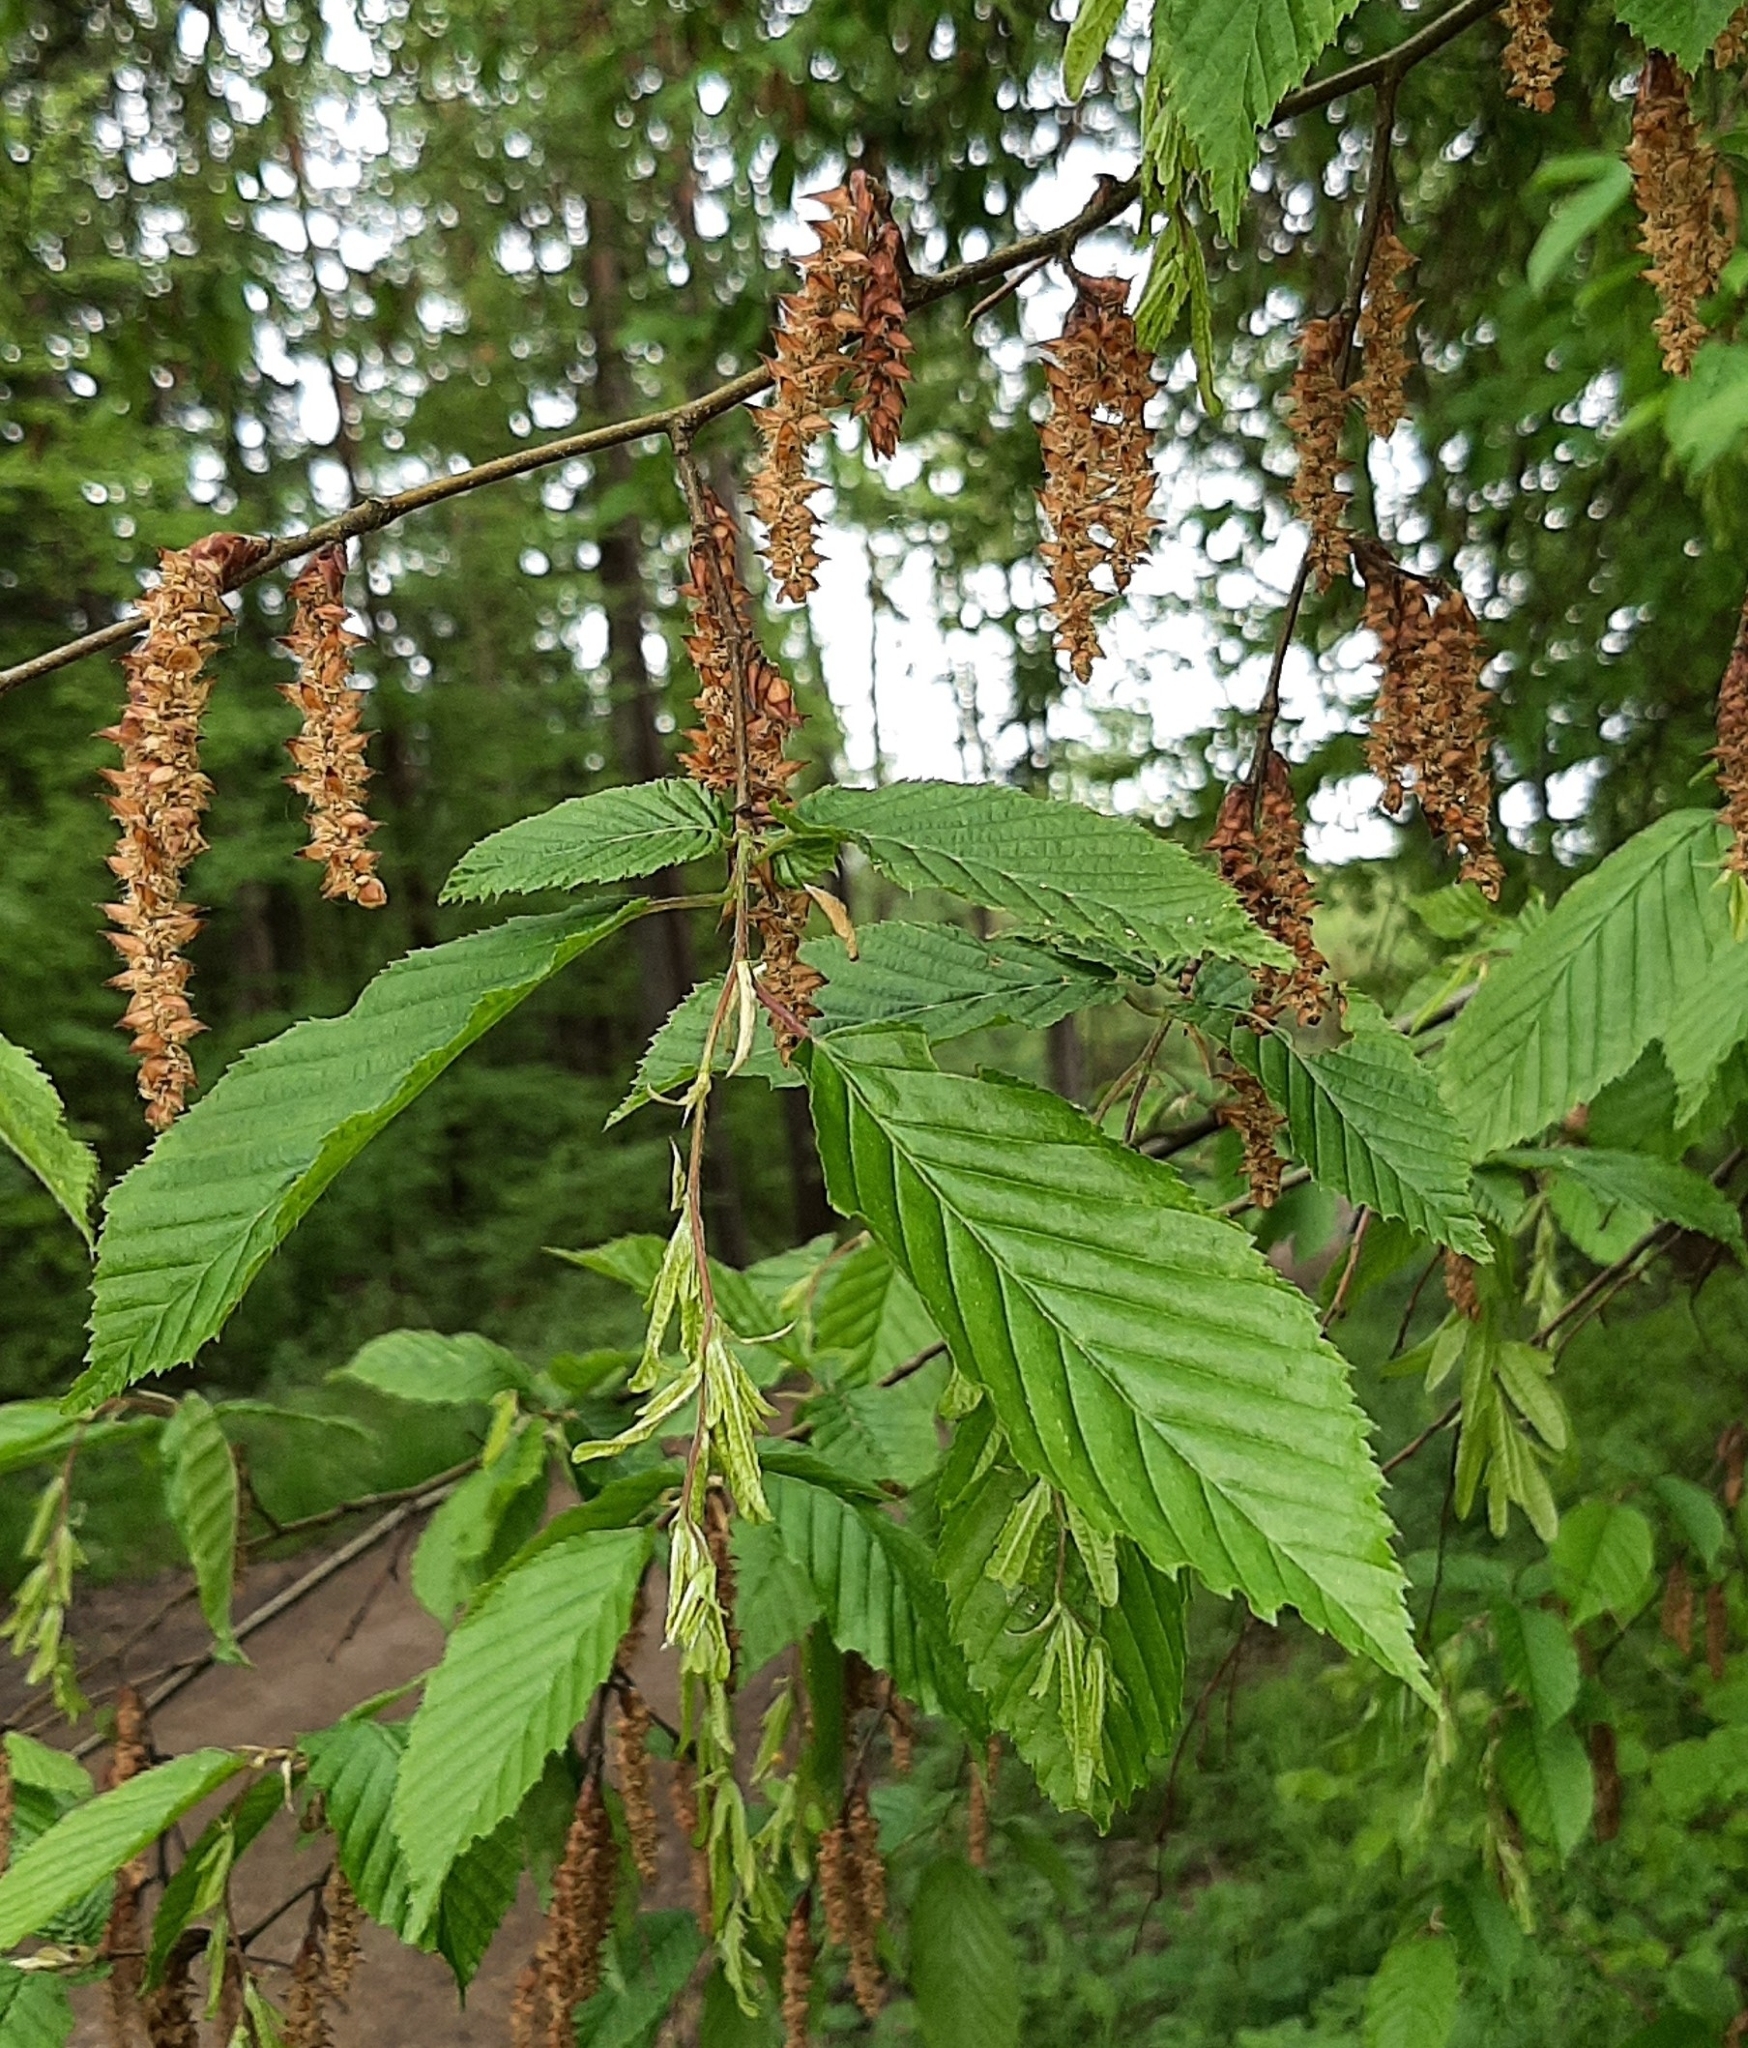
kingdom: Plantae
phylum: Tracheophyta
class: Magnoliopsida
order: Fagales
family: Betulaceae
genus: Carpinus
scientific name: Carpinus betulus
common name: Hornbeam
